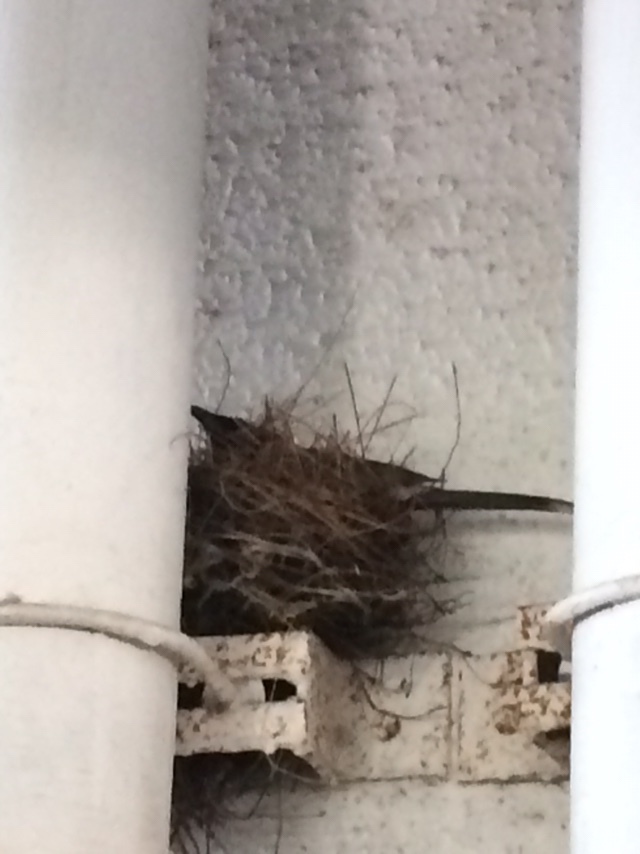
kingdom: Animalia
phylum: Chordata
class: Aves
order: Passeriformes
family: Pycnonotidae
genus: Pycnonotus
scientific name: Pycnonotus cafer
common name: Red-vented bulbul
